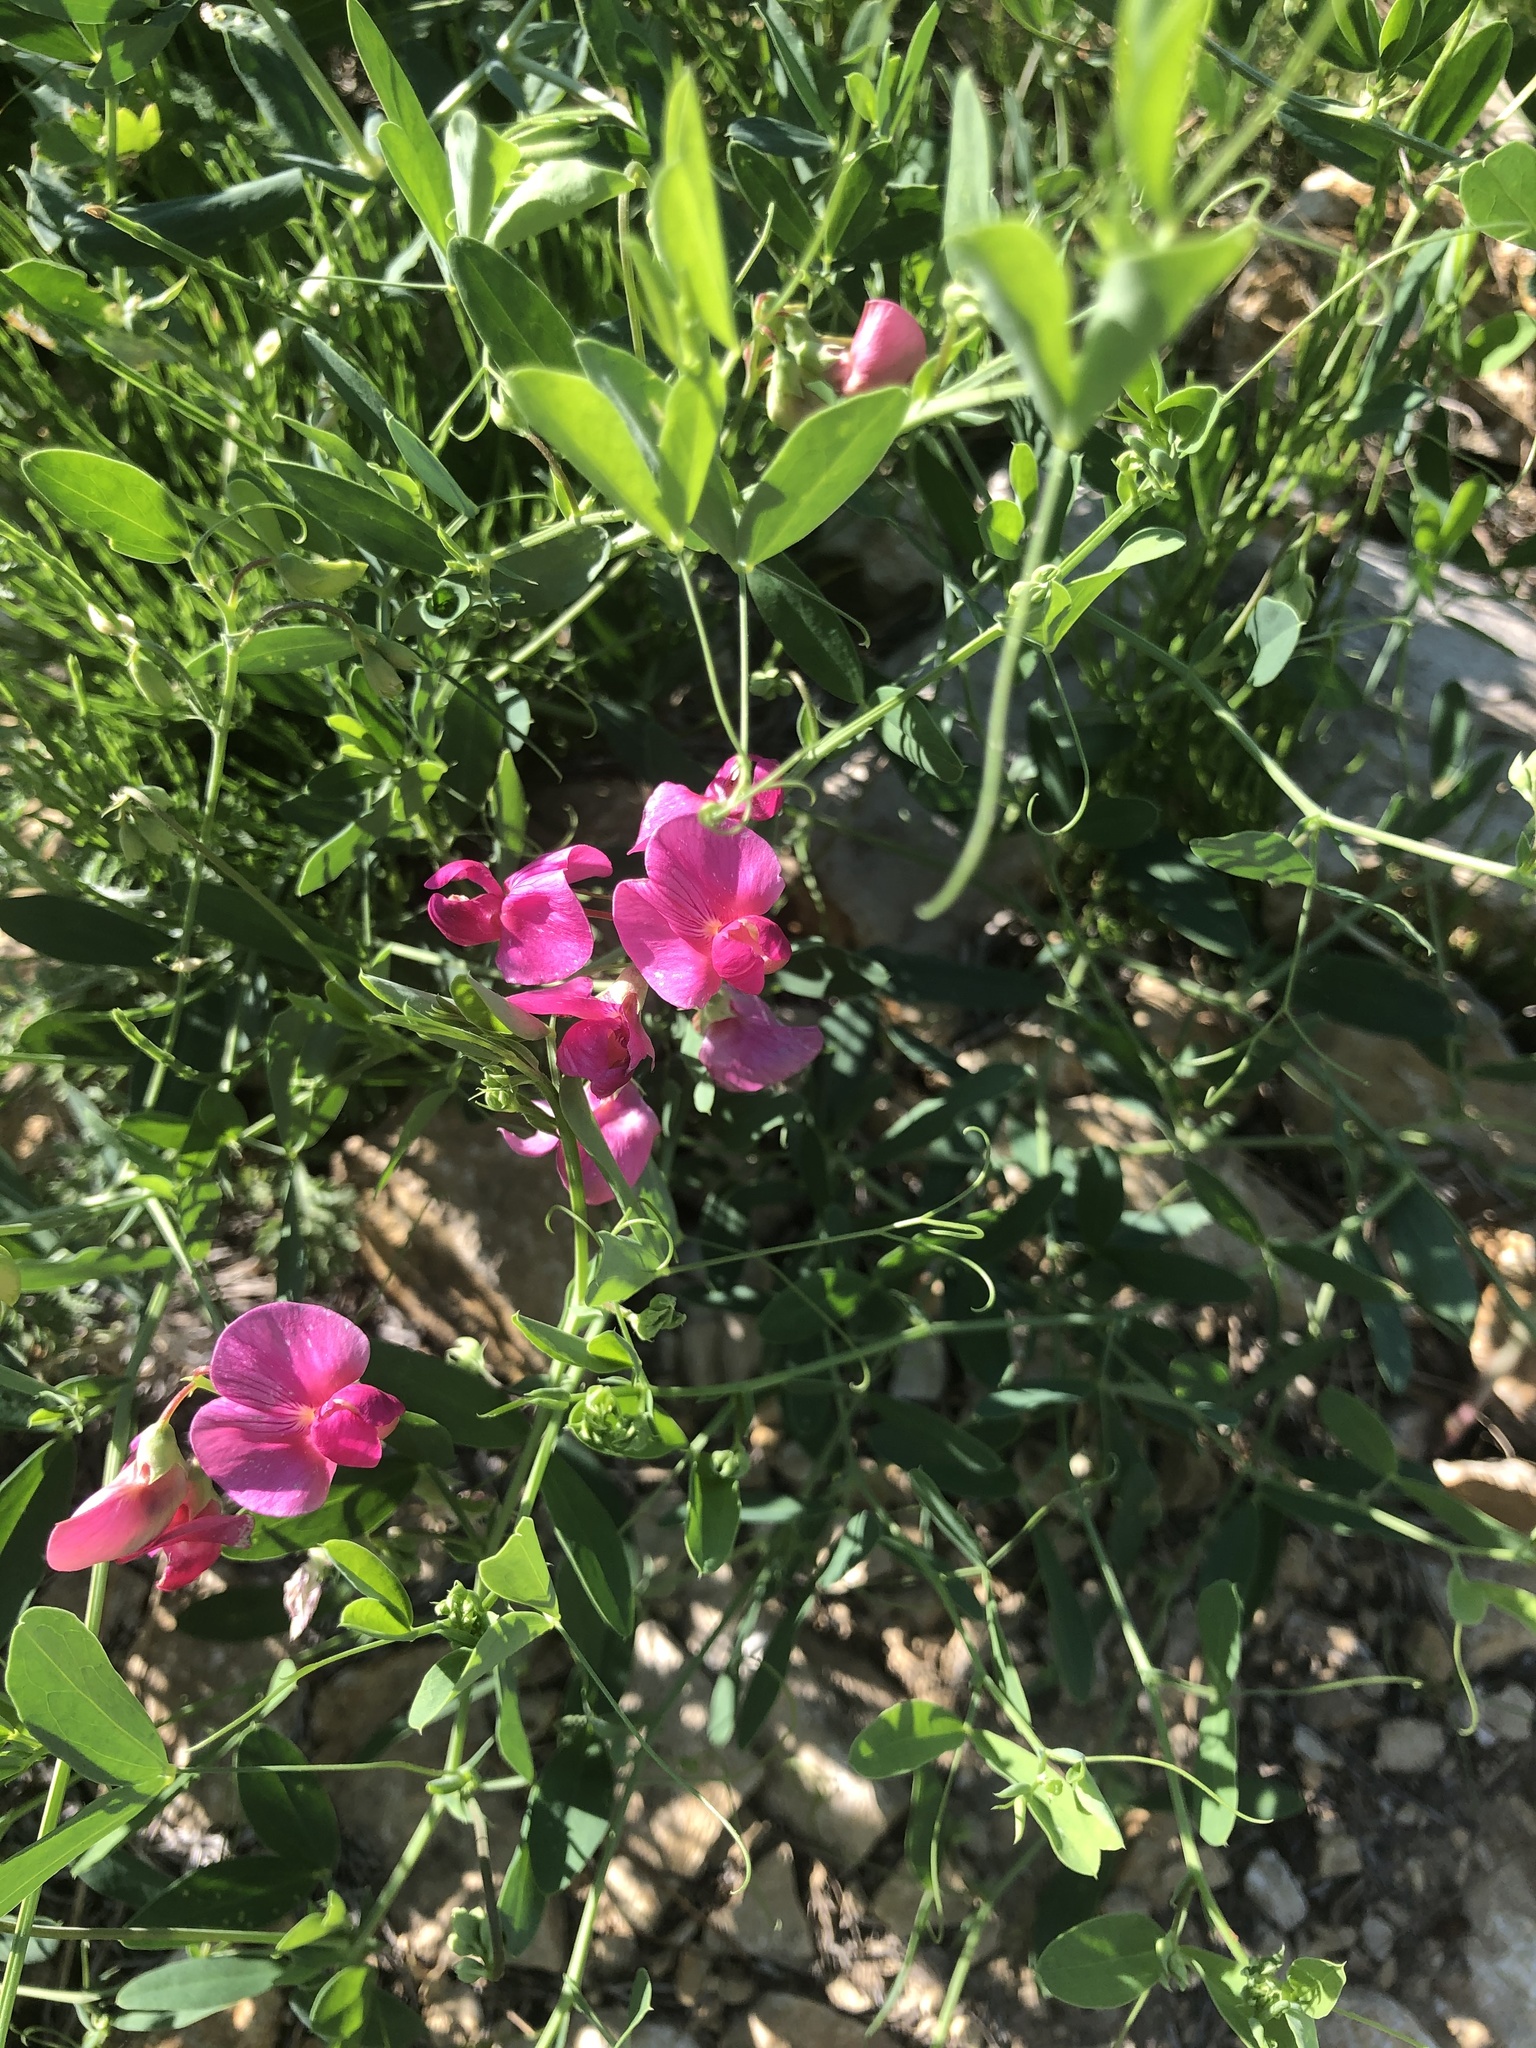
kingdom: Plantae
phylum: Tracheophyta
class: Magnoliopsida
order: Fabales
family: Fabaceae
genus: Lathyrus
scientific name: Lathyrus tuberosus
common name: Tuberous pea
